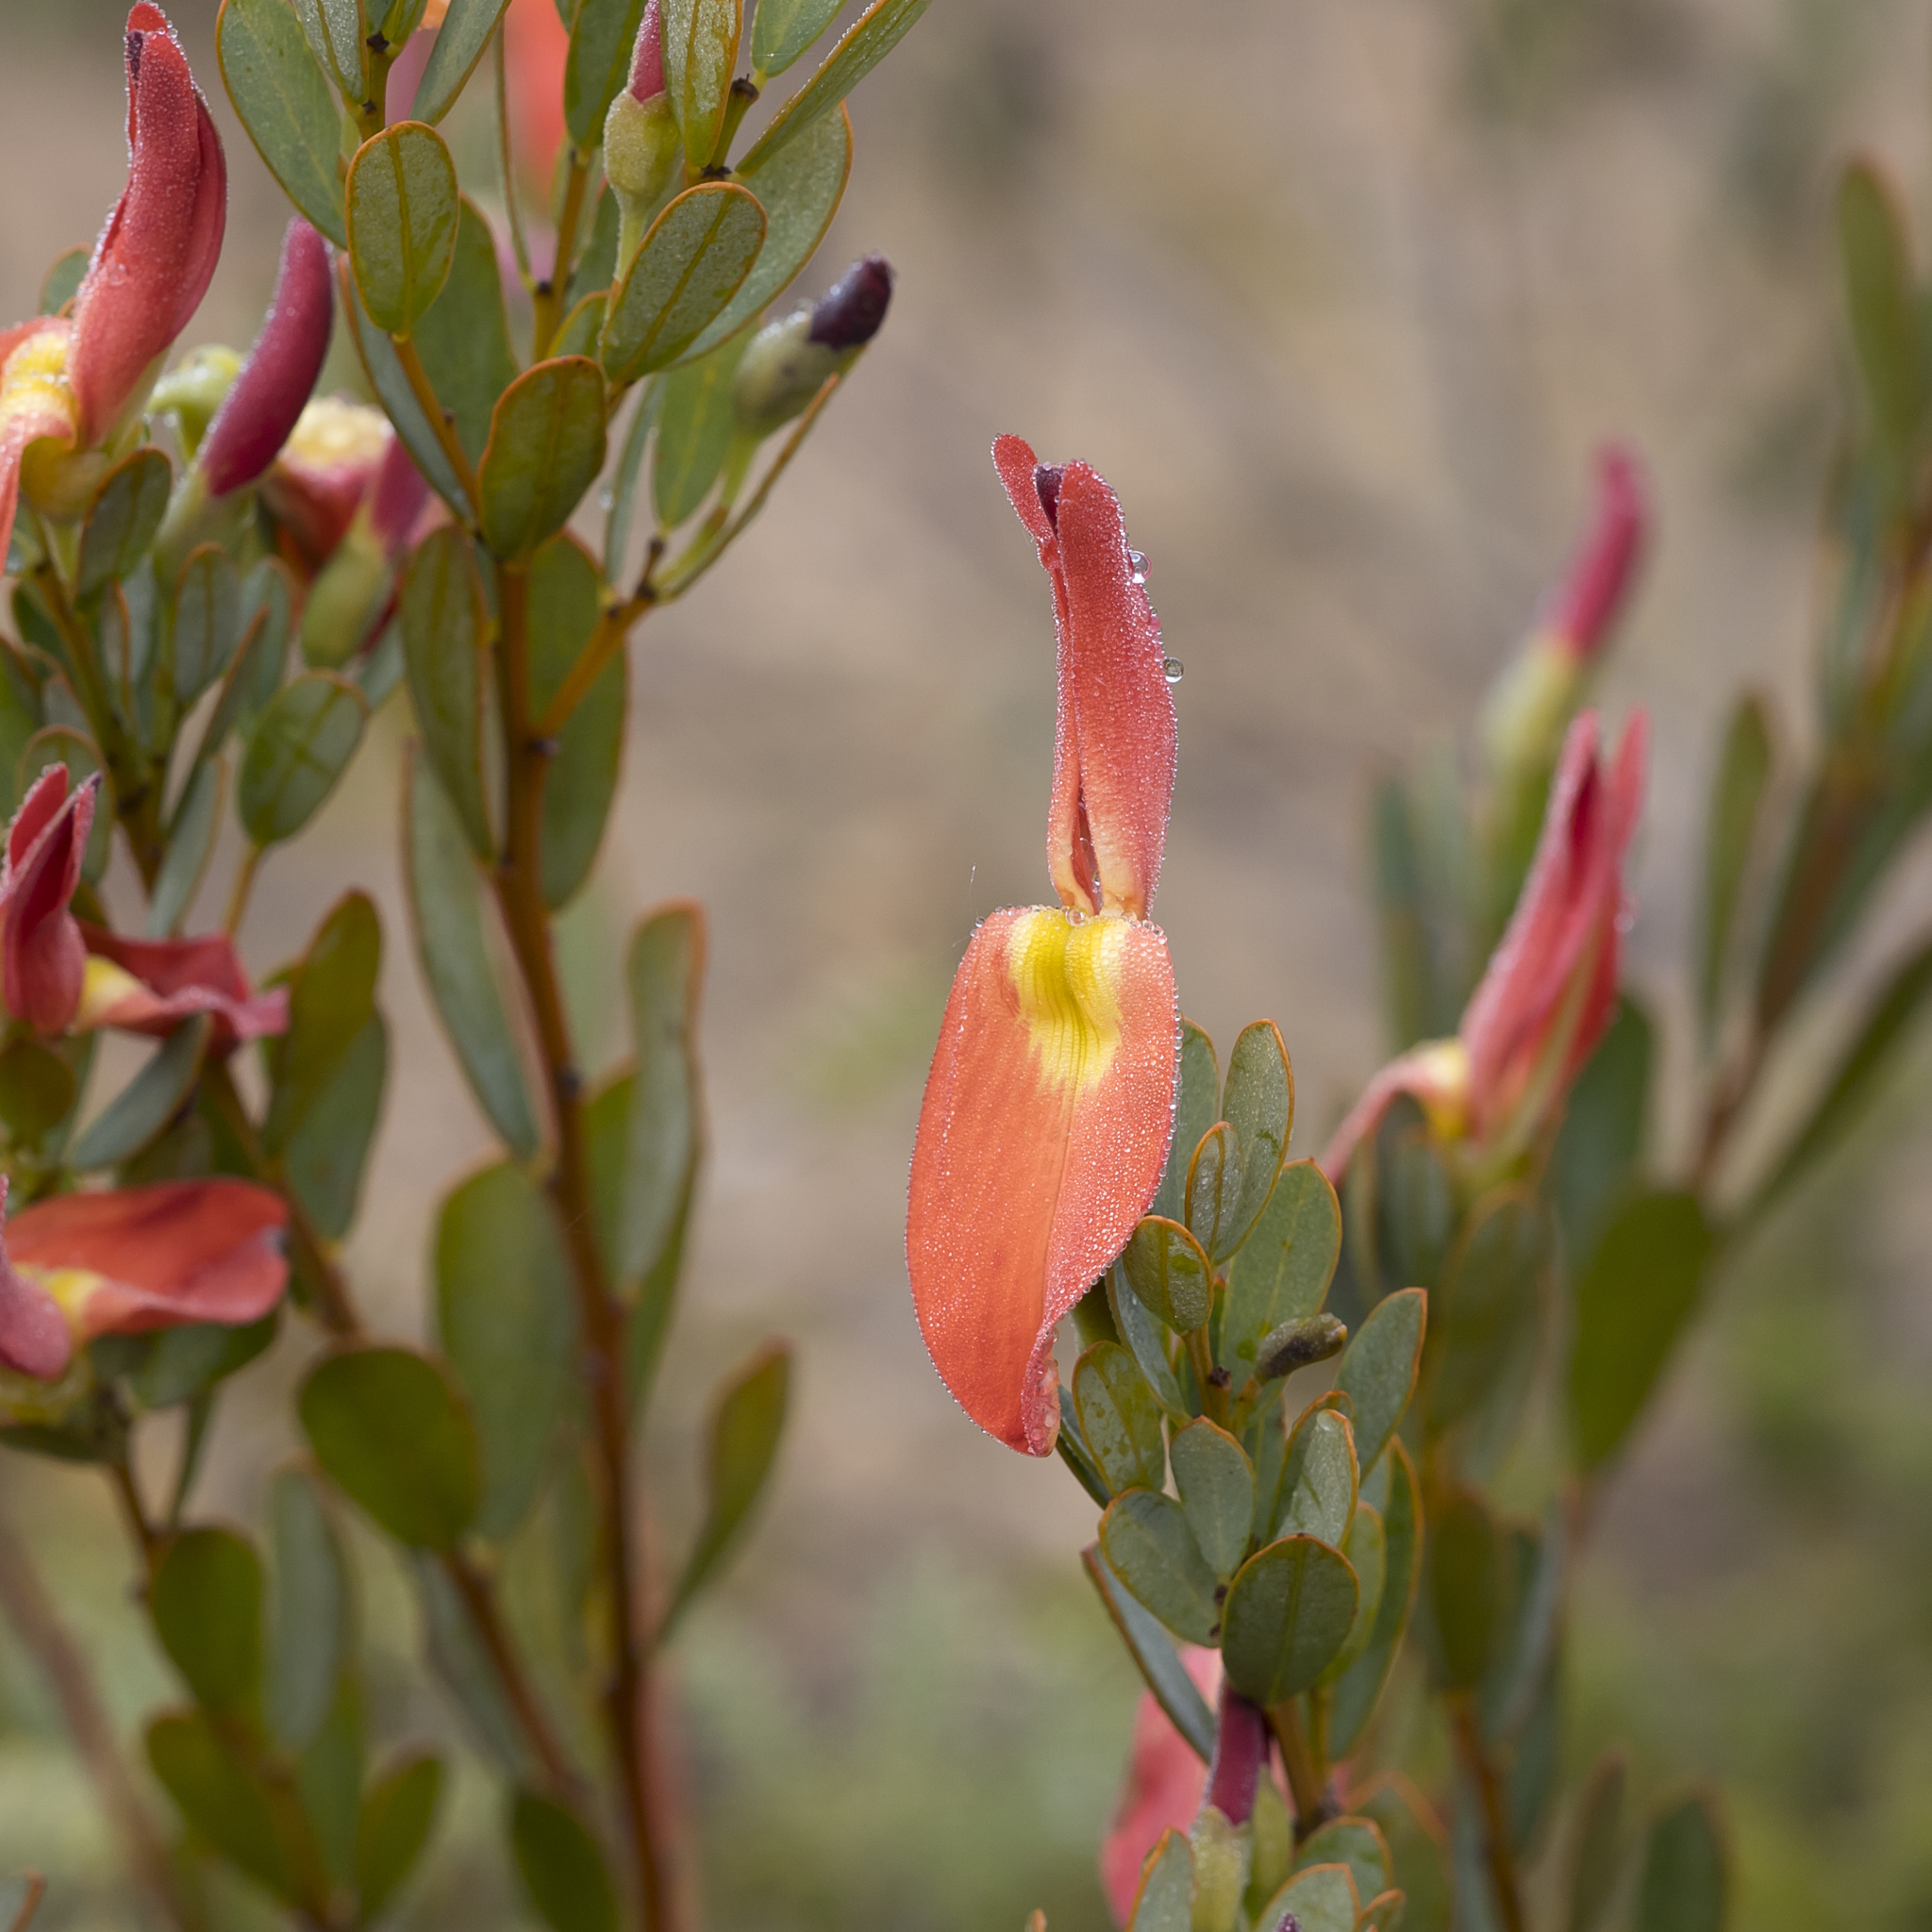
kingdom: Plantae
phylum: Tracheophyta
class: Magnoliopsida
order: Fabales
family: Fabaceae
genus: Templetonia
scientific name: Templetonia retusa
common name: Cockies'-tongue
